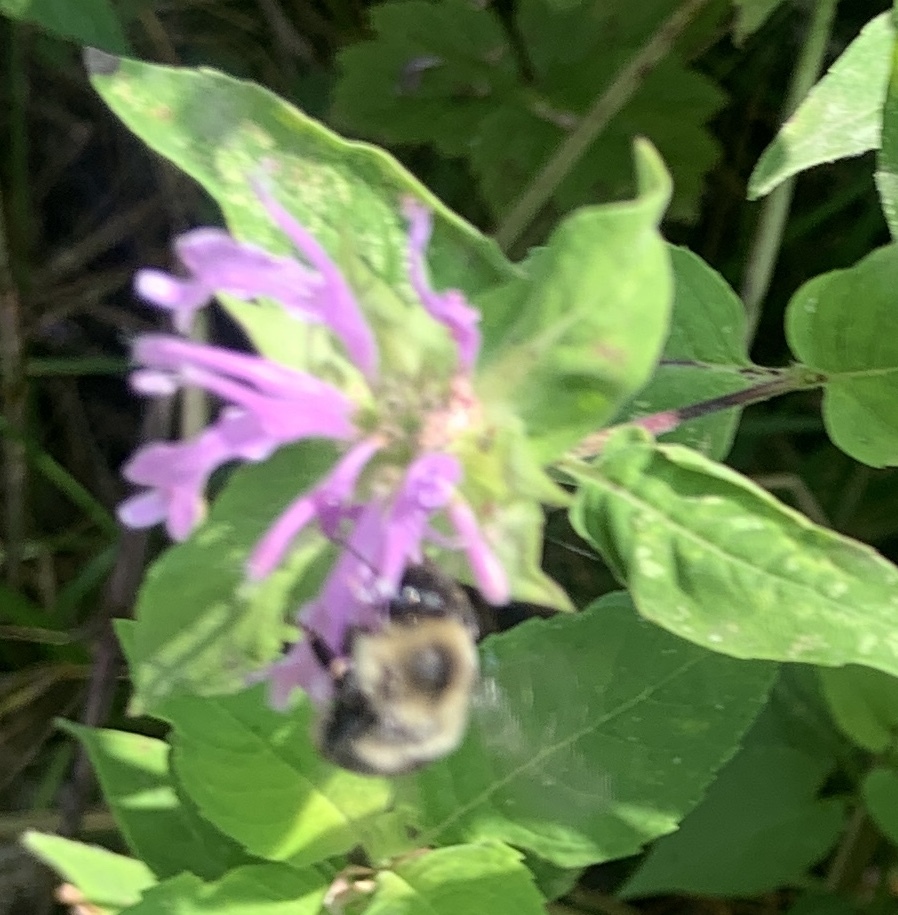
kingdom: Animalia
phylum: Arthropoda
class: Insecta
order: Hymenoptera
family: Apidae
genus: Bombus
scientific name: Bombus impatiens
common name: Common eastern bumble bee
